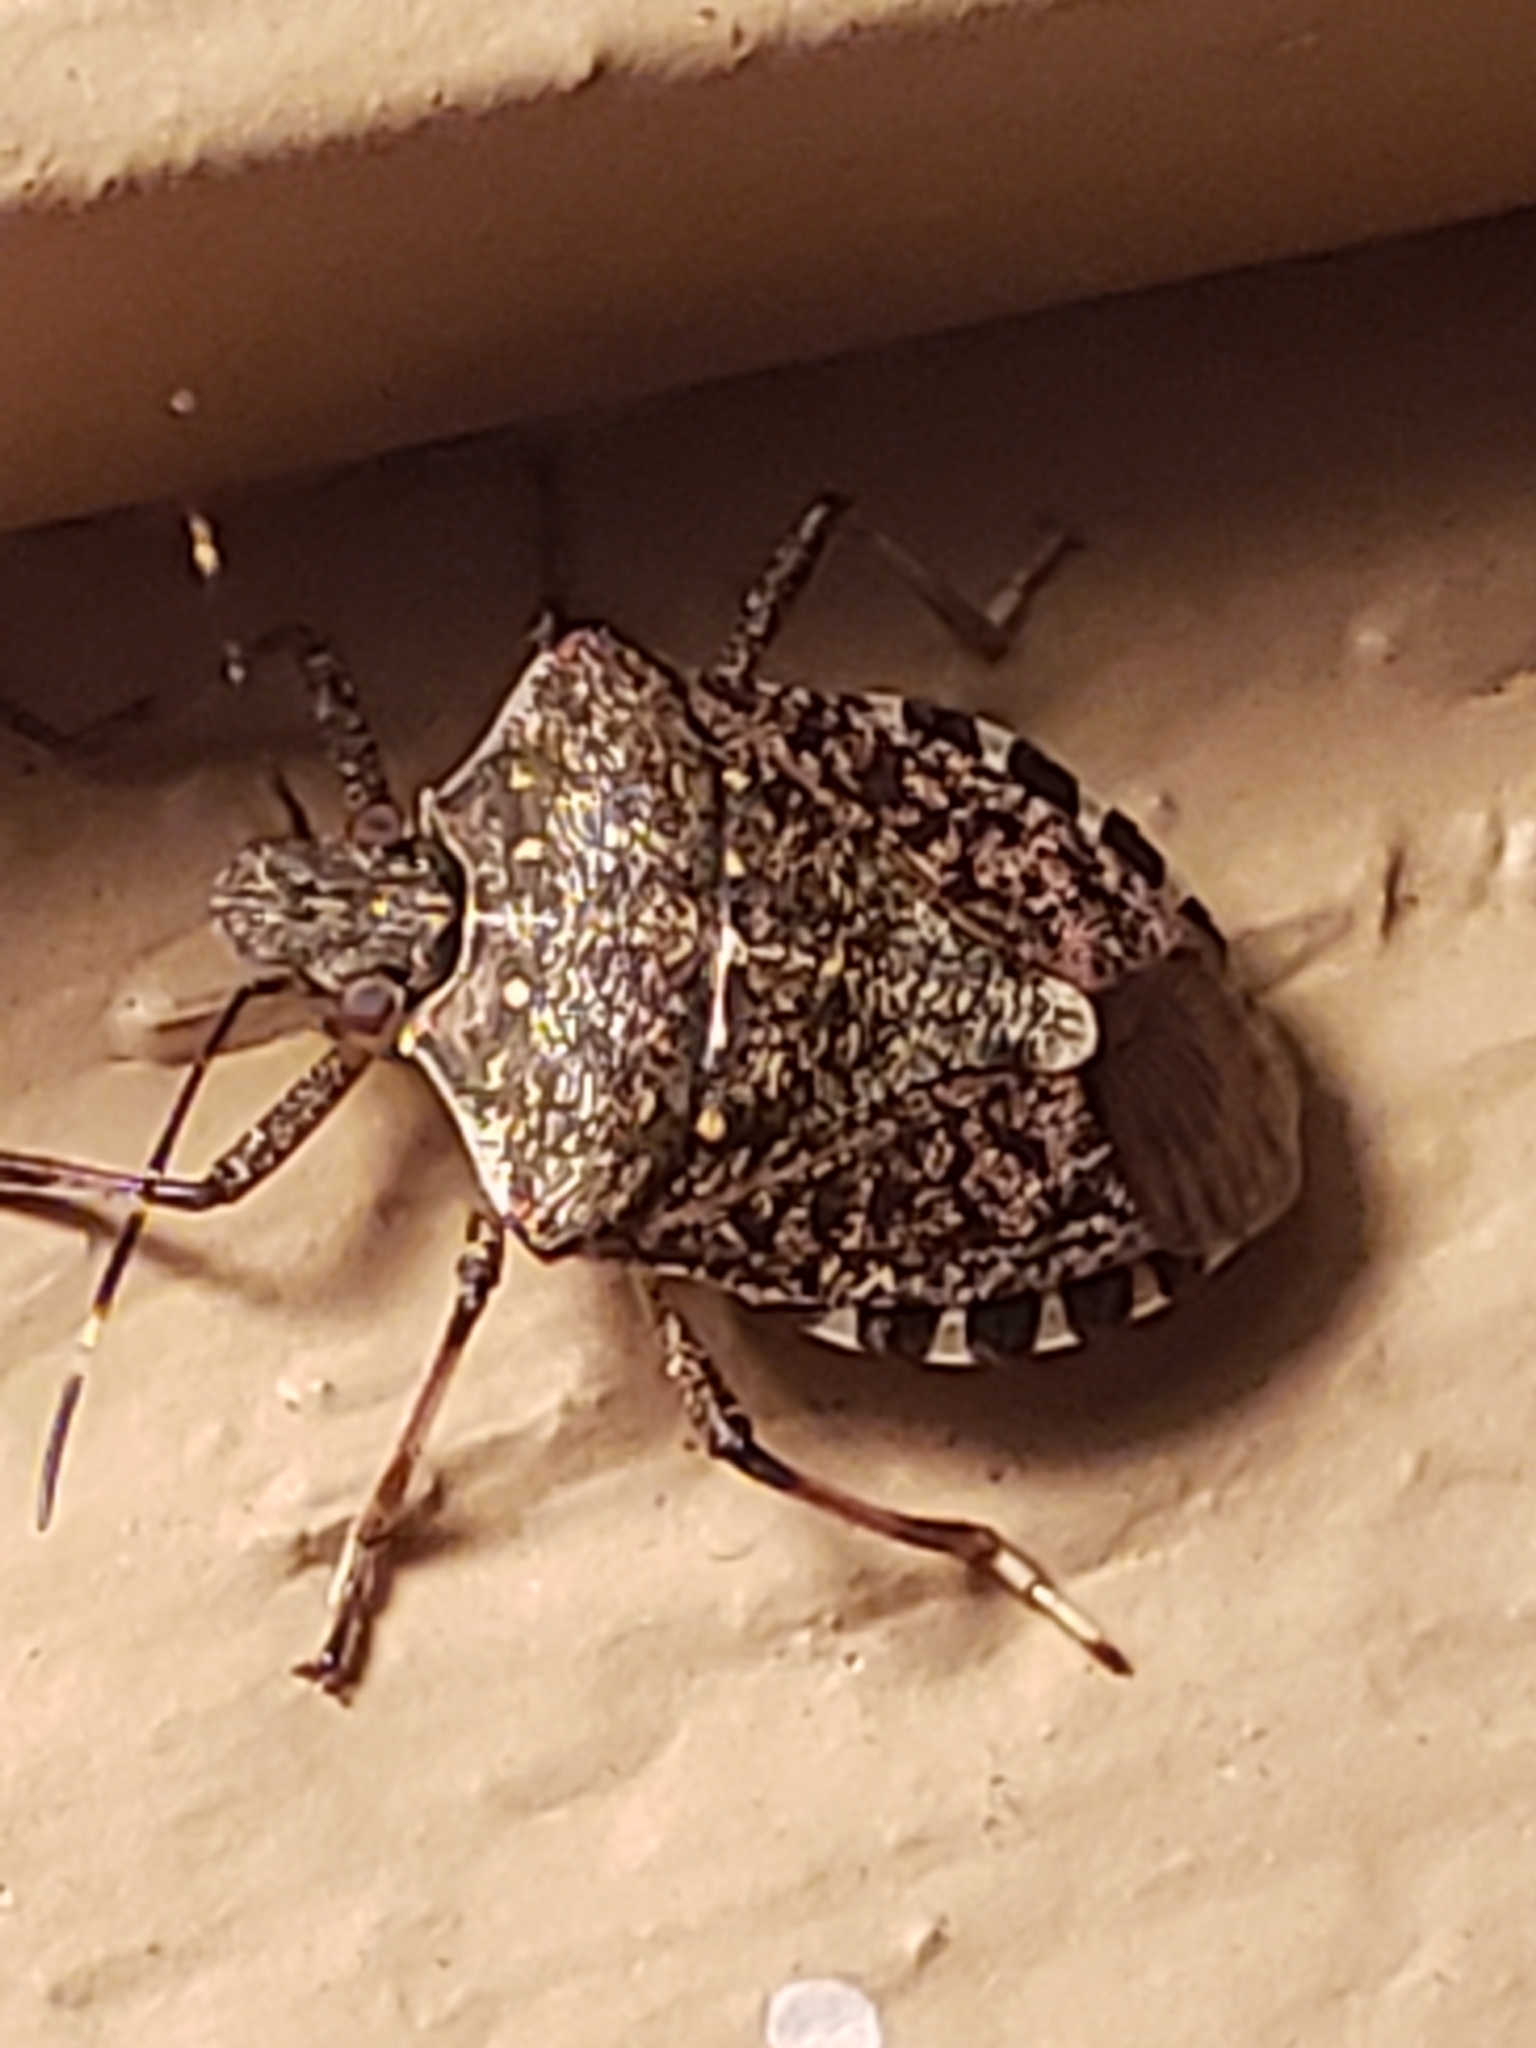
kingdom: Animalia
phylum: Arthropoda
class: Insecta
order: Hemiptera
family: Pentatomidae
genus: Halyomorpha
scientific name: Halyomorpha halys
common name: Brown marmorated stink bug
